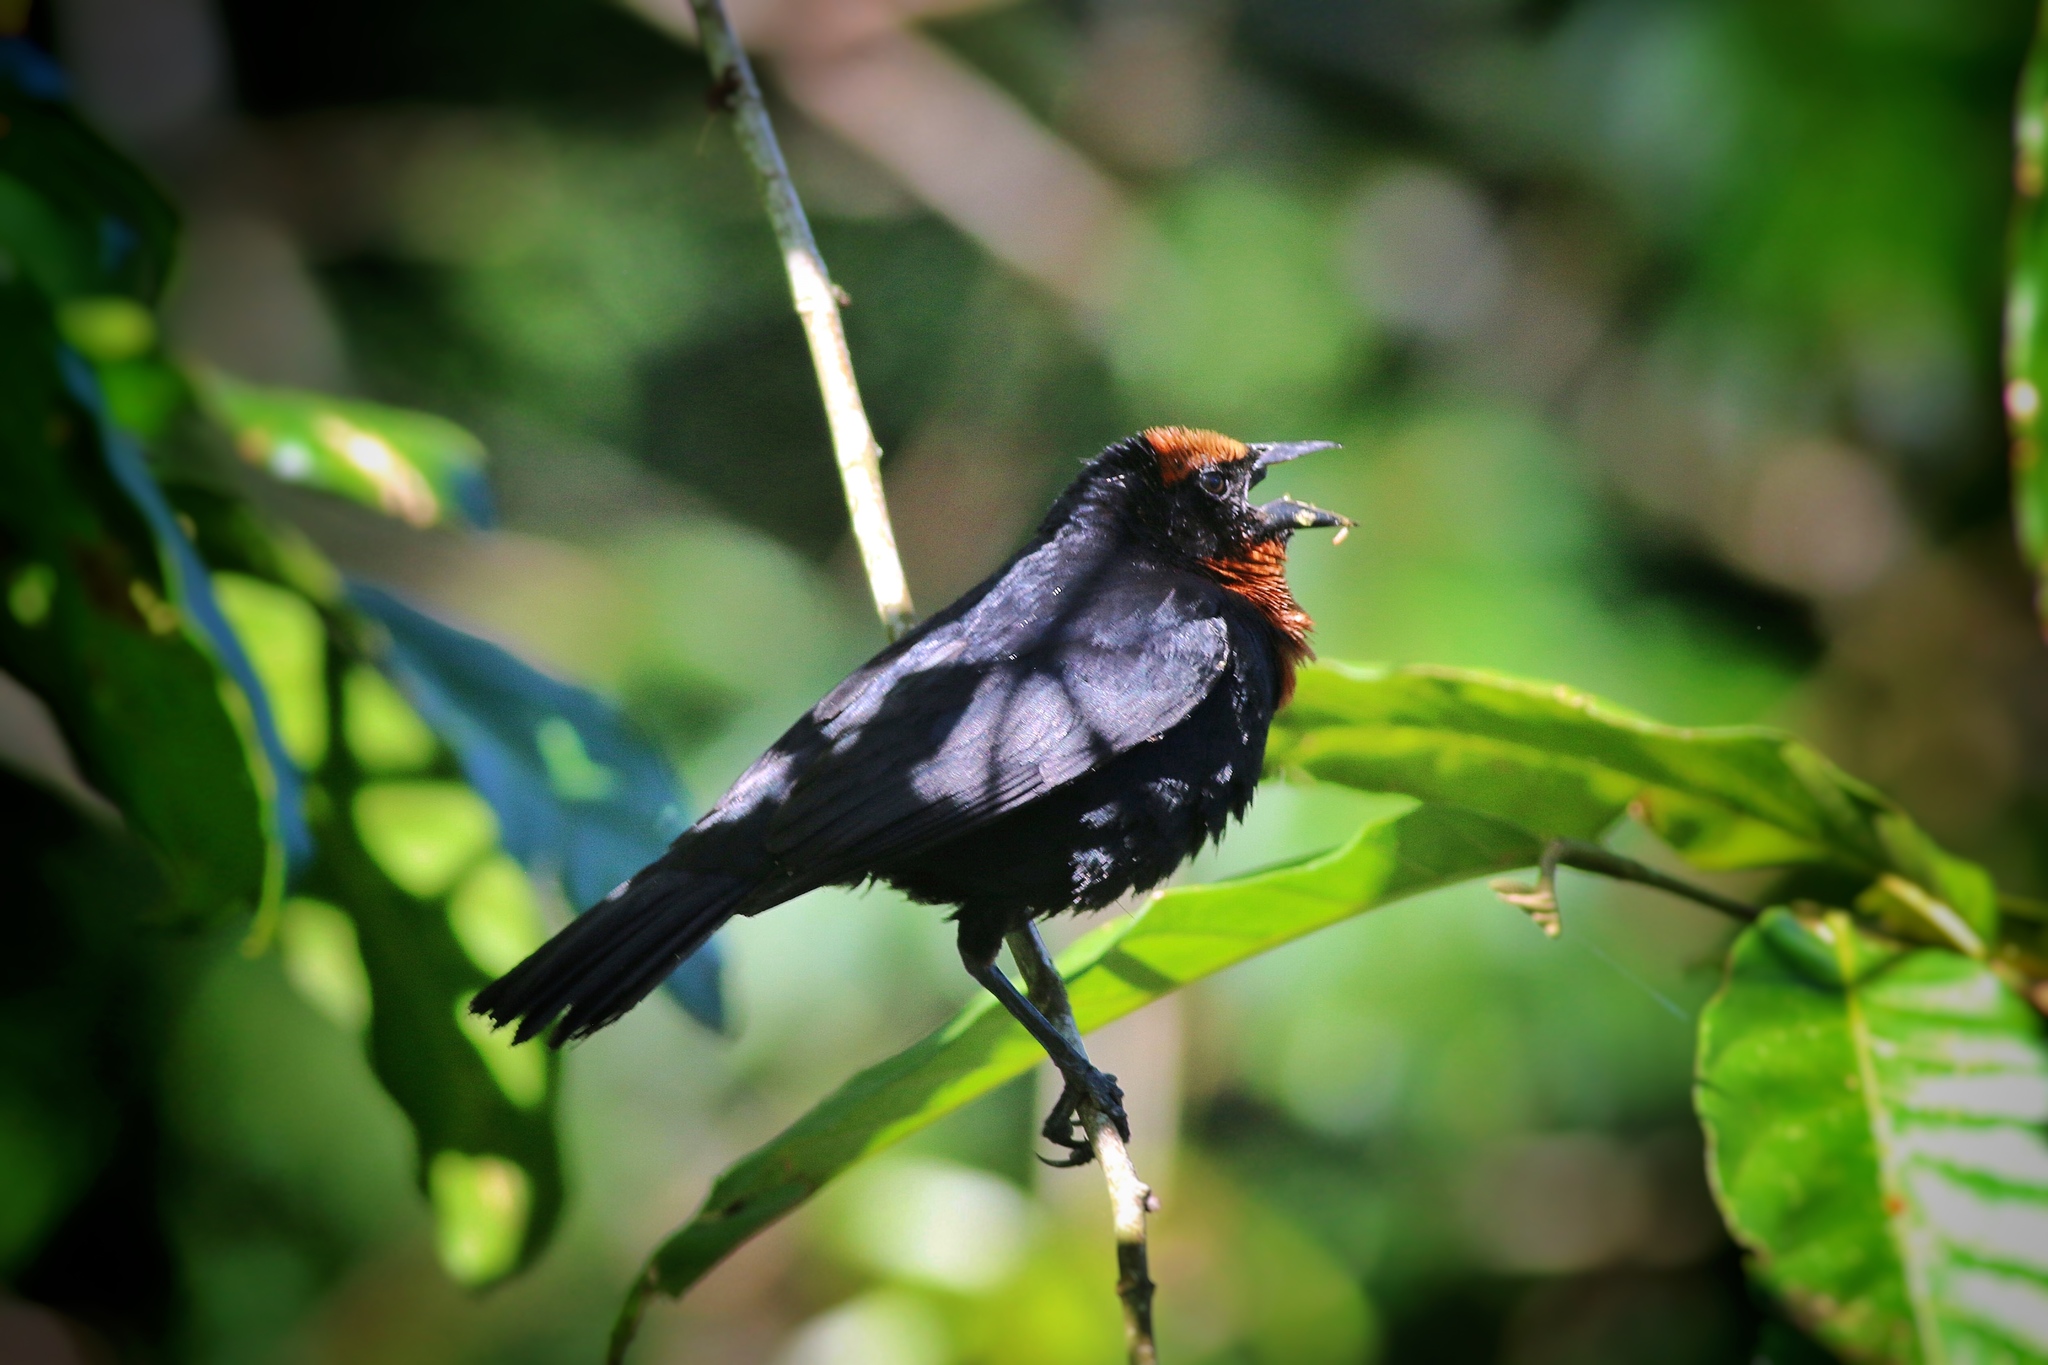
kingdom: Animalia
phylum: Chordata
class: Aves
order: Passeriformes
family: Icteridae
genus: Chrysomus
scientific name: Chrysomus ruficapillus
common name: Chestnut-capped blackbird
